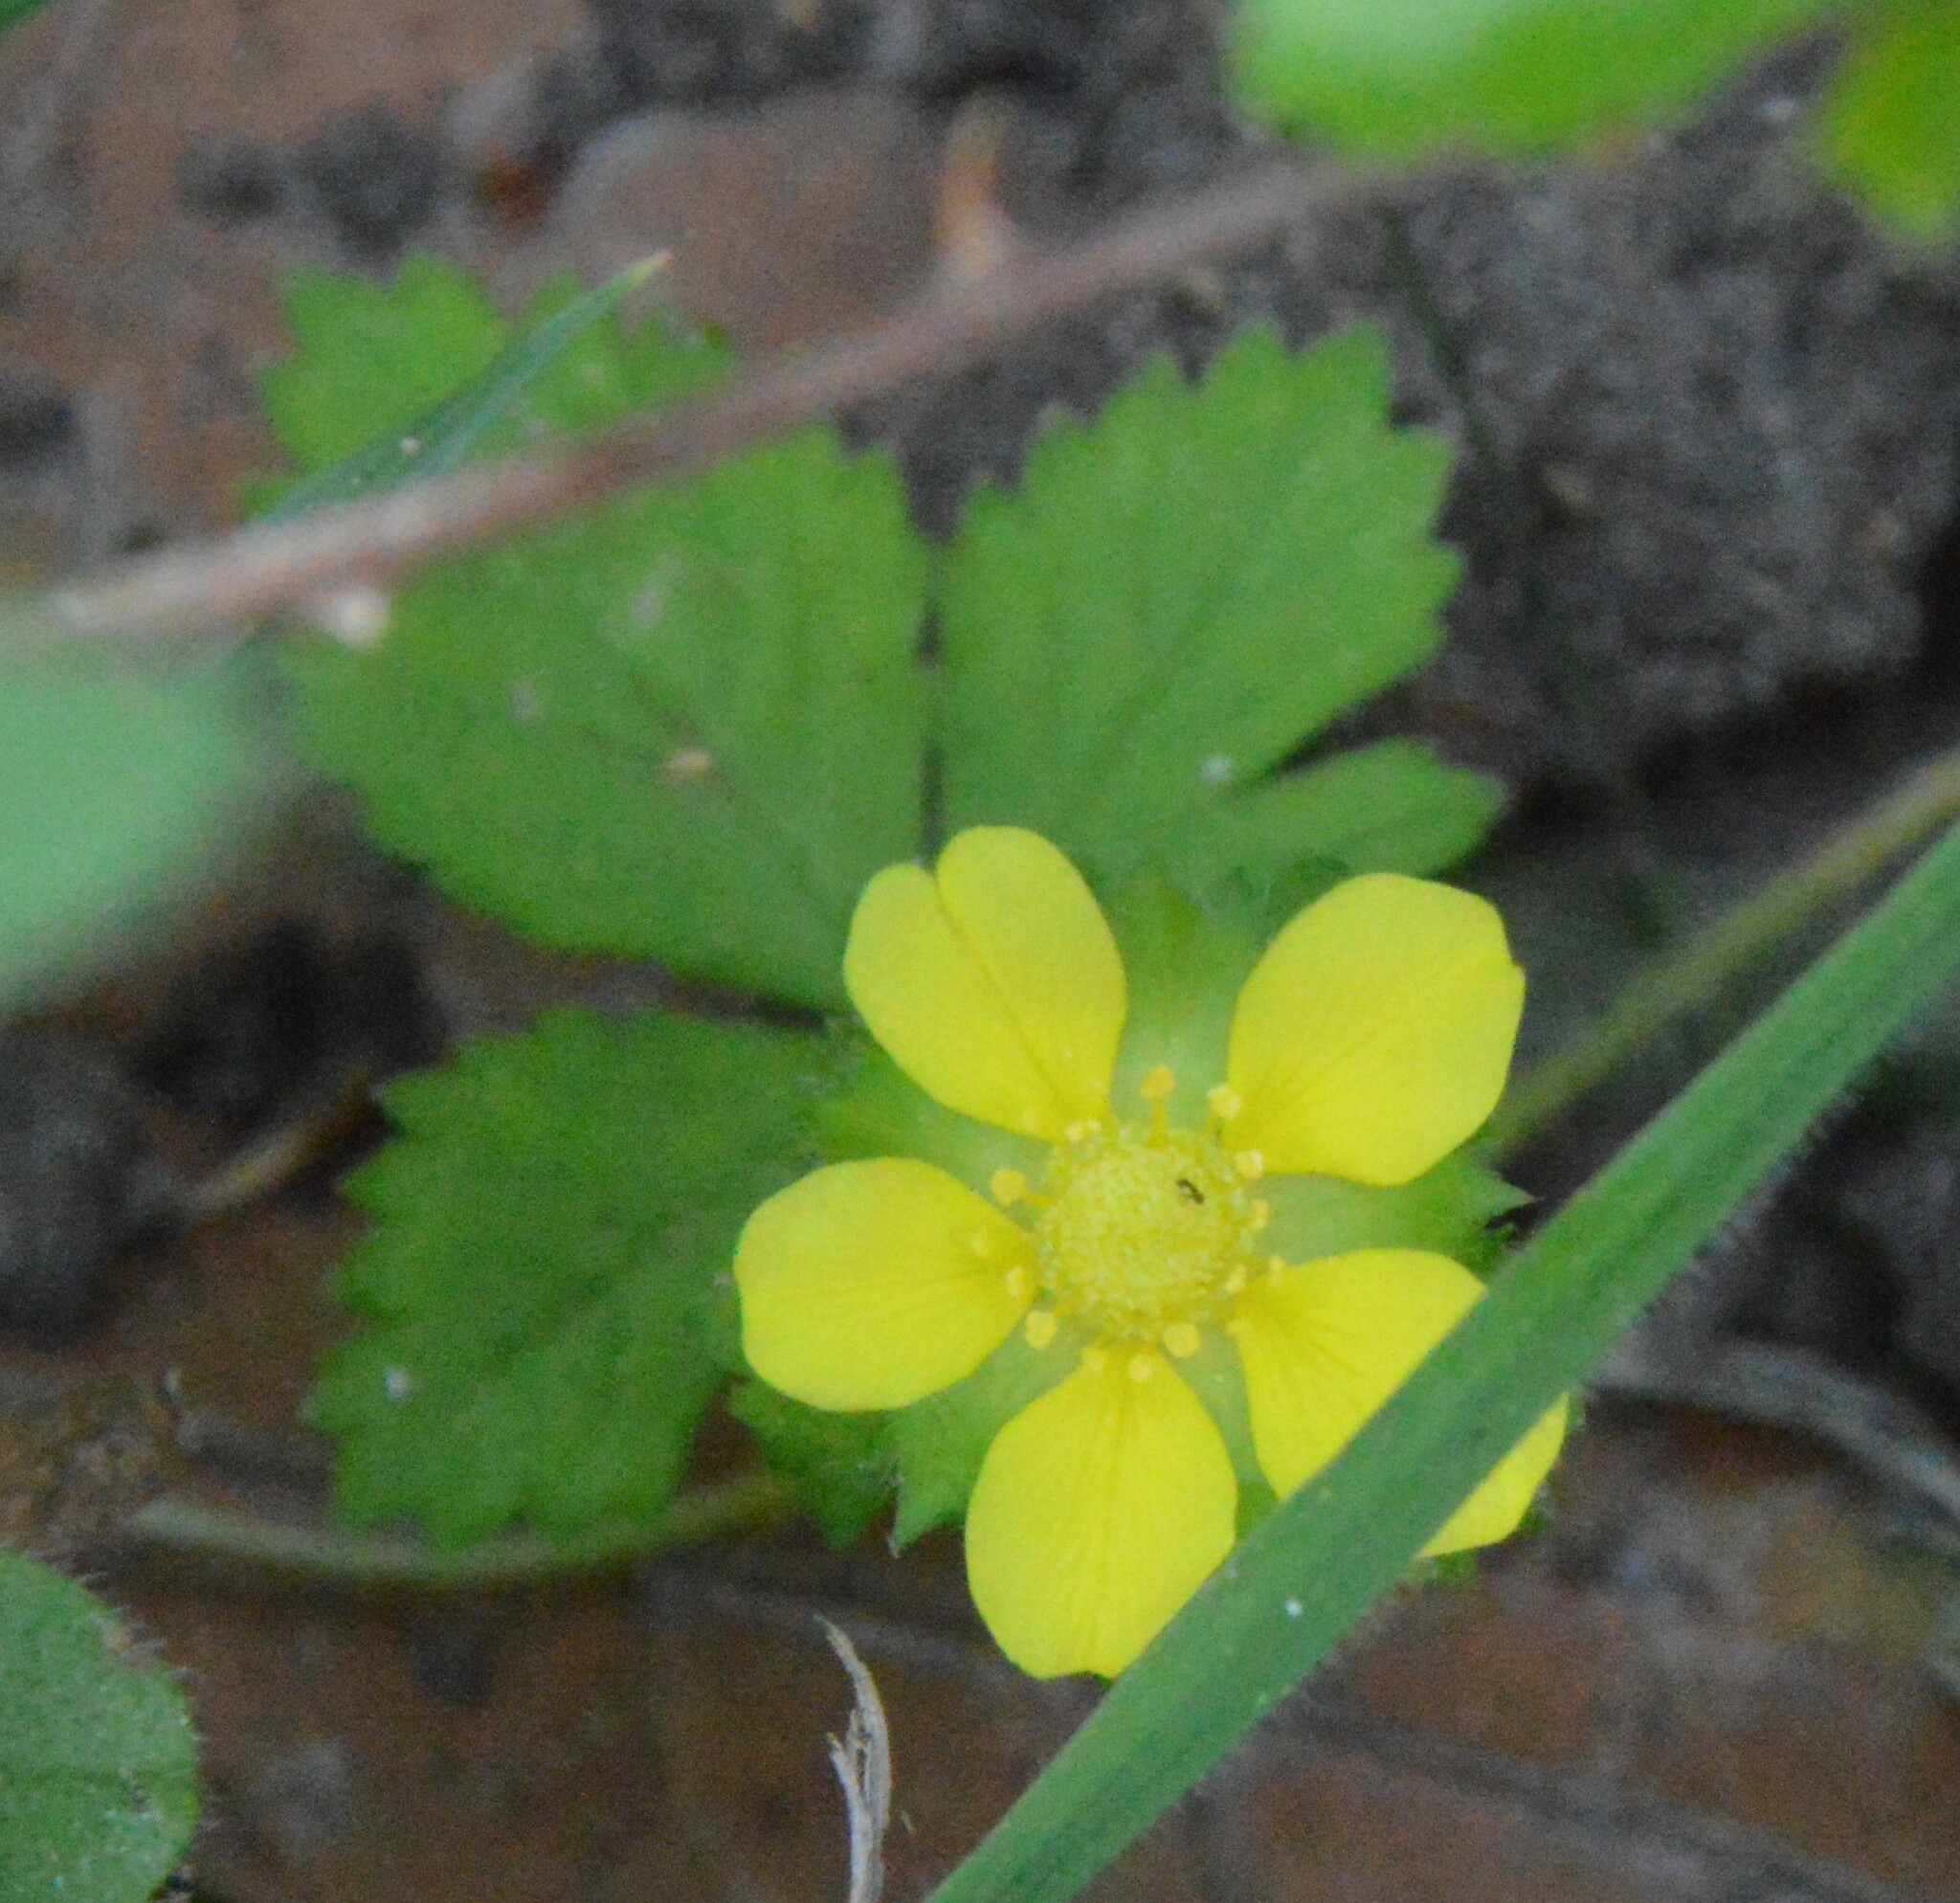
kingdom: Plantae
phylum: Tracheophyta
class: Magnoliopsida
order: Rosales
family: Rosaceae
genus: Potentilla
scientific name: Potentilla indica
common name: Yellow-flowered strawberry
